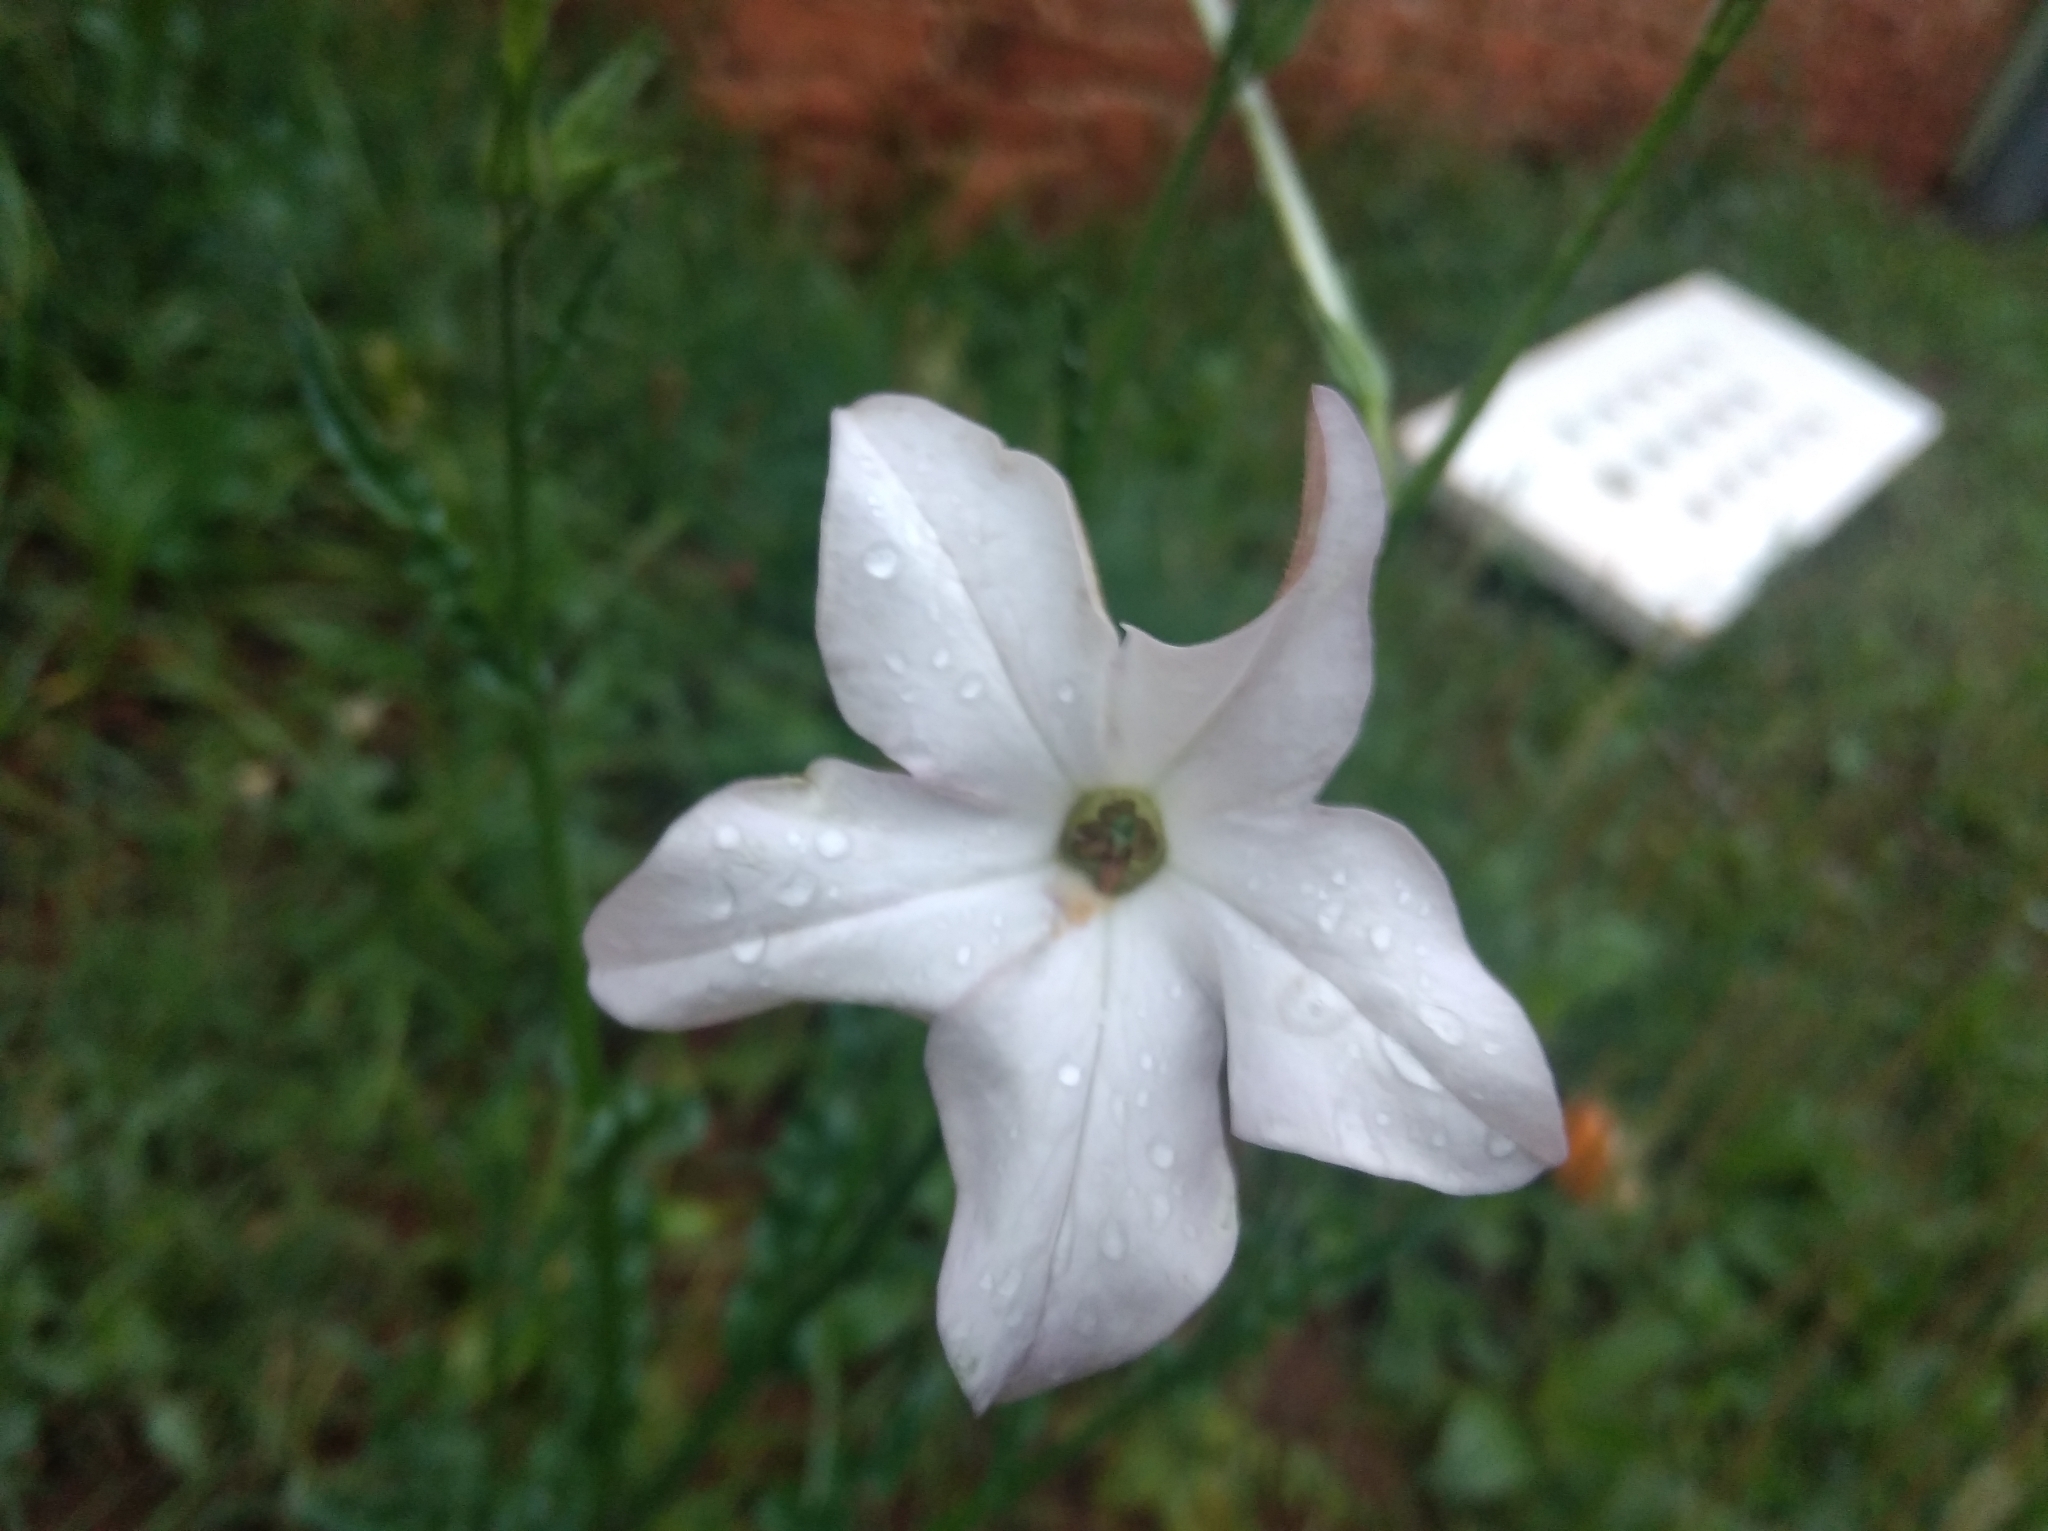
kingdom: Plantae
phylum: Tracheophyta
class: Magnoliopsida
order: Solanales
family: Solanaceae
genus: Nicotiana
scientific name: Nicotiana longiflora
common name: Long-flowered tobacco
